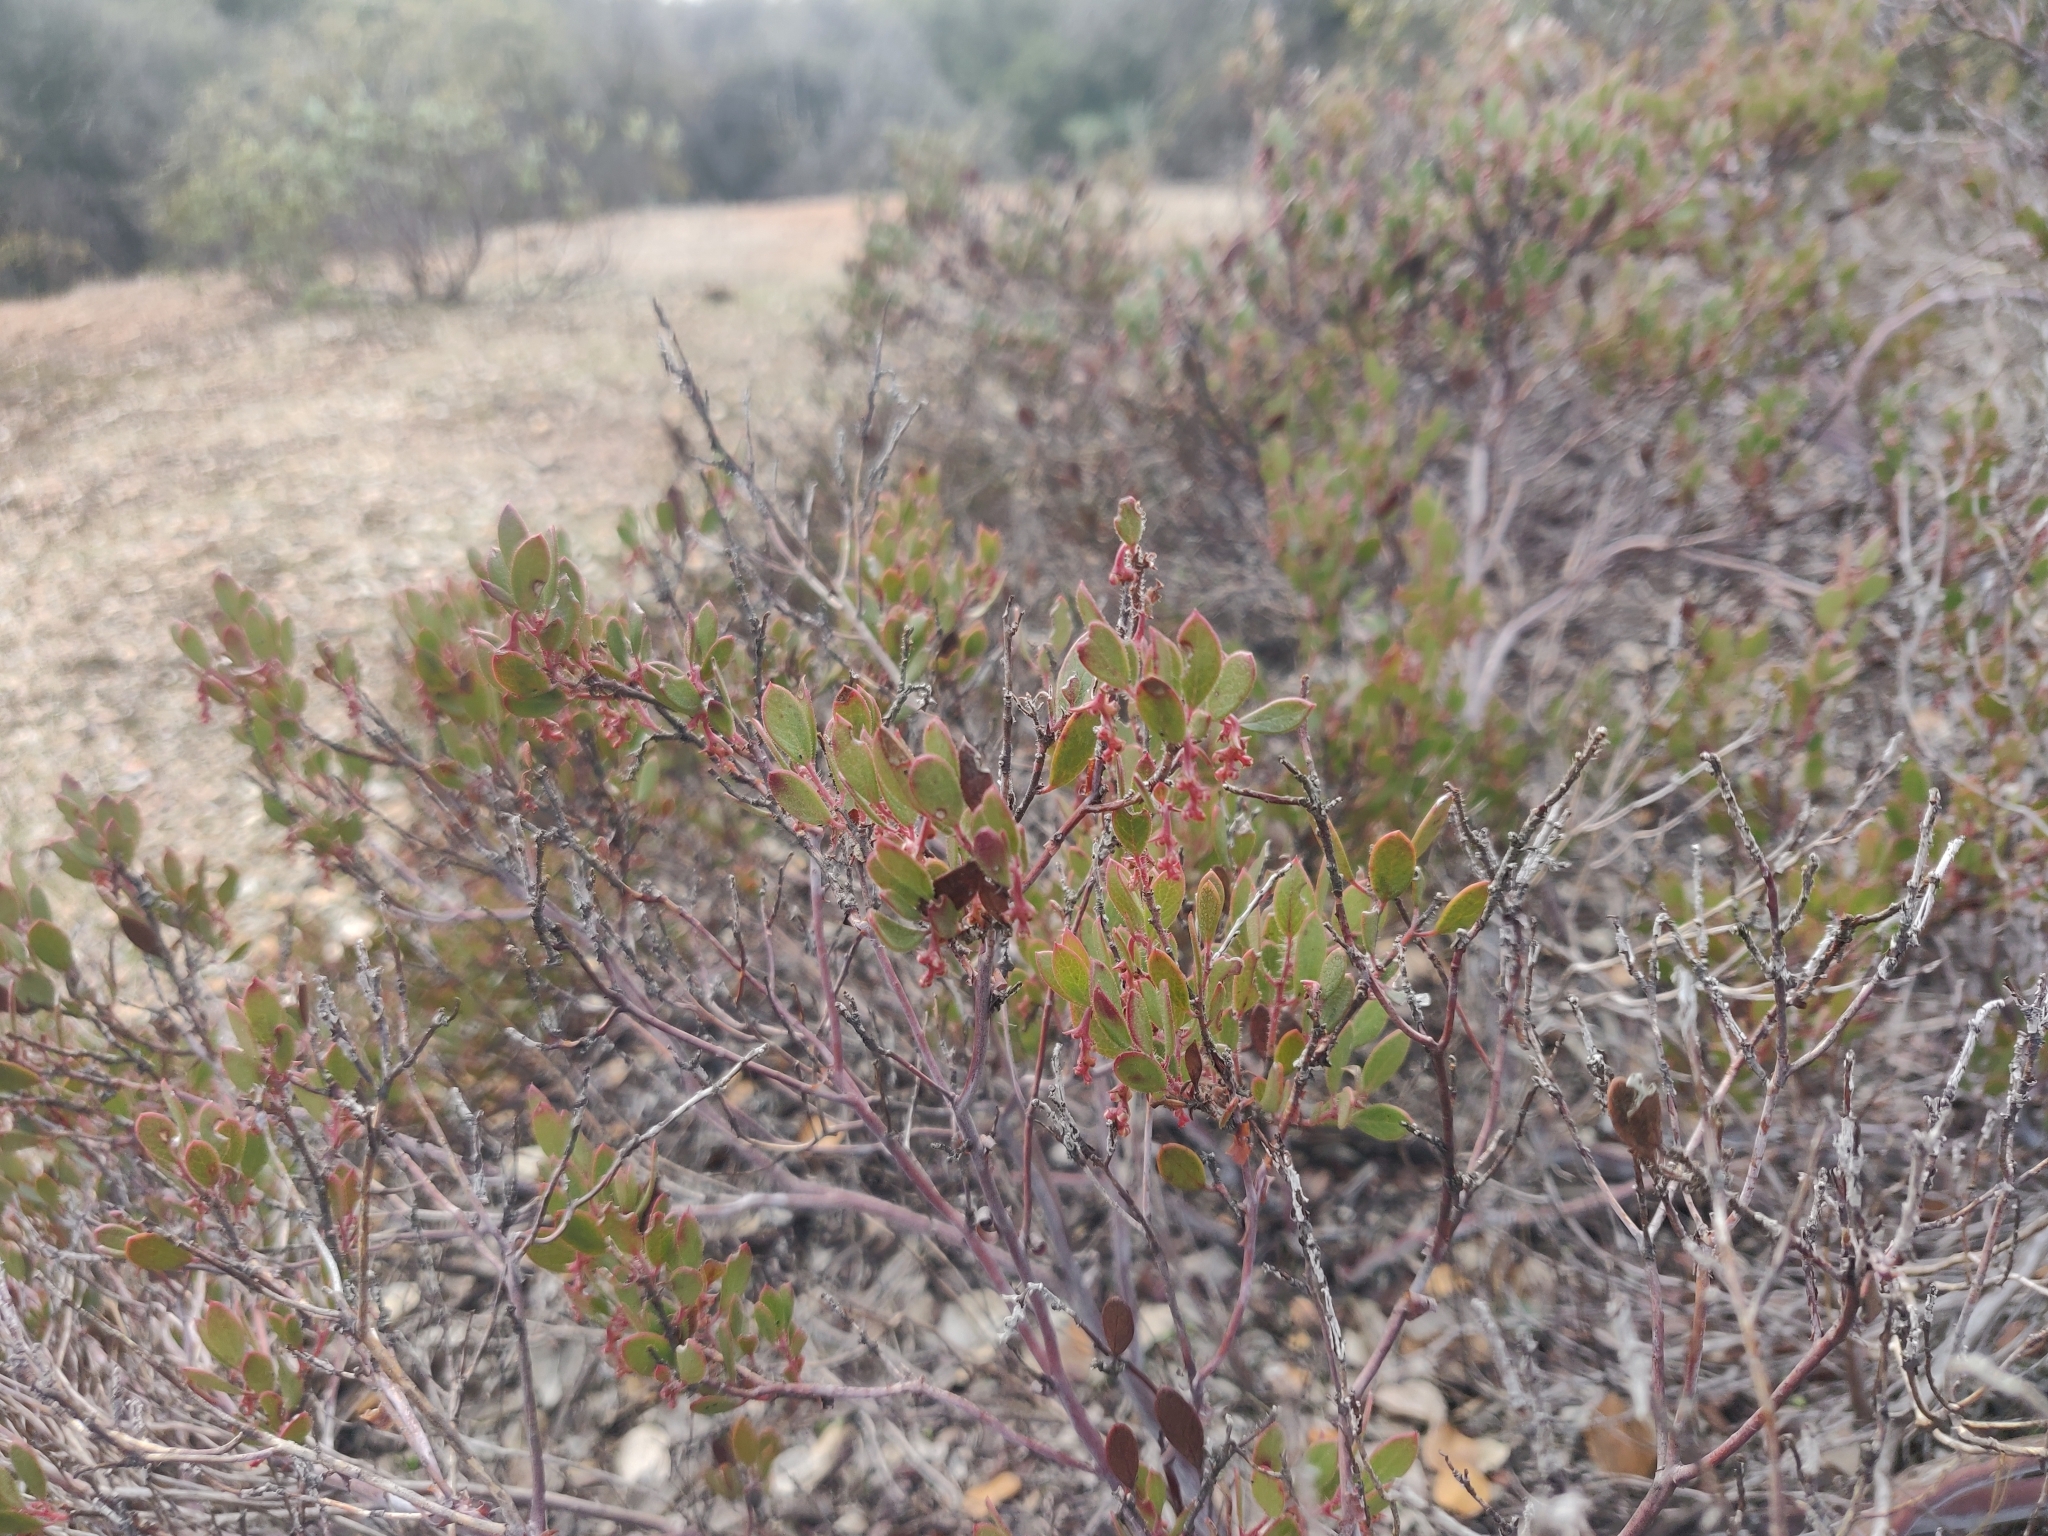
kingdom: Plantae
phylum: Tracheophyta
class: Magnoliopsida
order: Ericales
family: Ericaceae
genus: Arctostaphylos
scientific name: Arctostaphylos myrtifolia
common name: Ione manzanita
